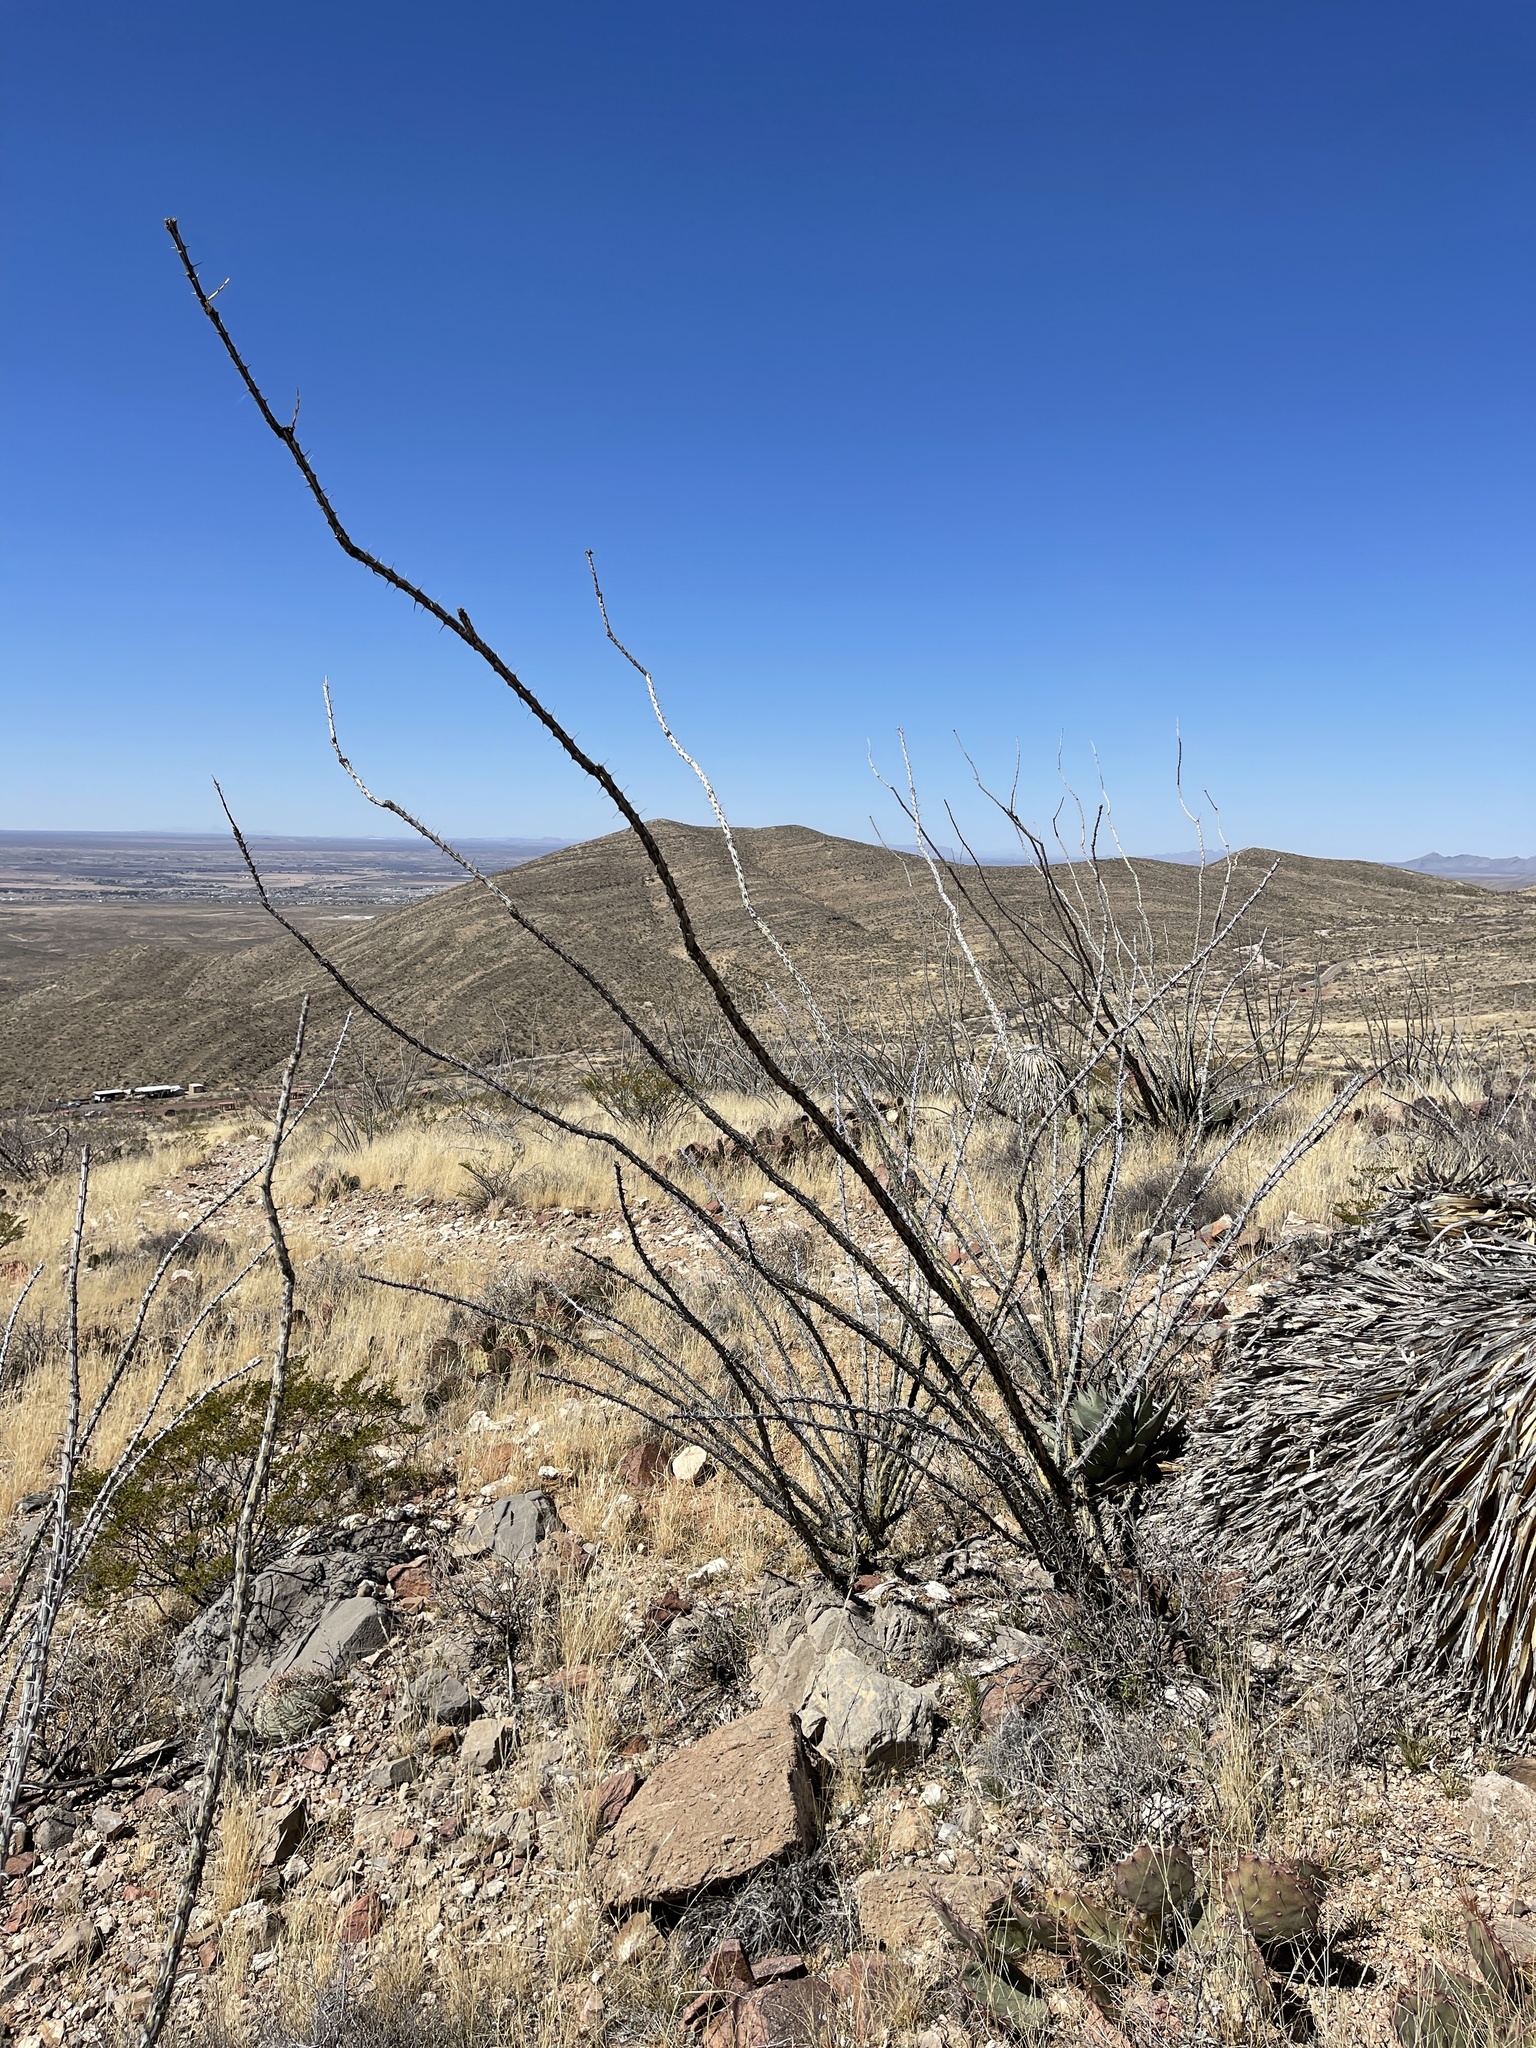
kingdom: Plantae
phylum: Tracheophyta
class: Magnoliopsida
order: Ericales
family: Fouquieriaceae
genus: Fouquieria
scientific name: Fouquieria splendens
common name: Vine-cactus
